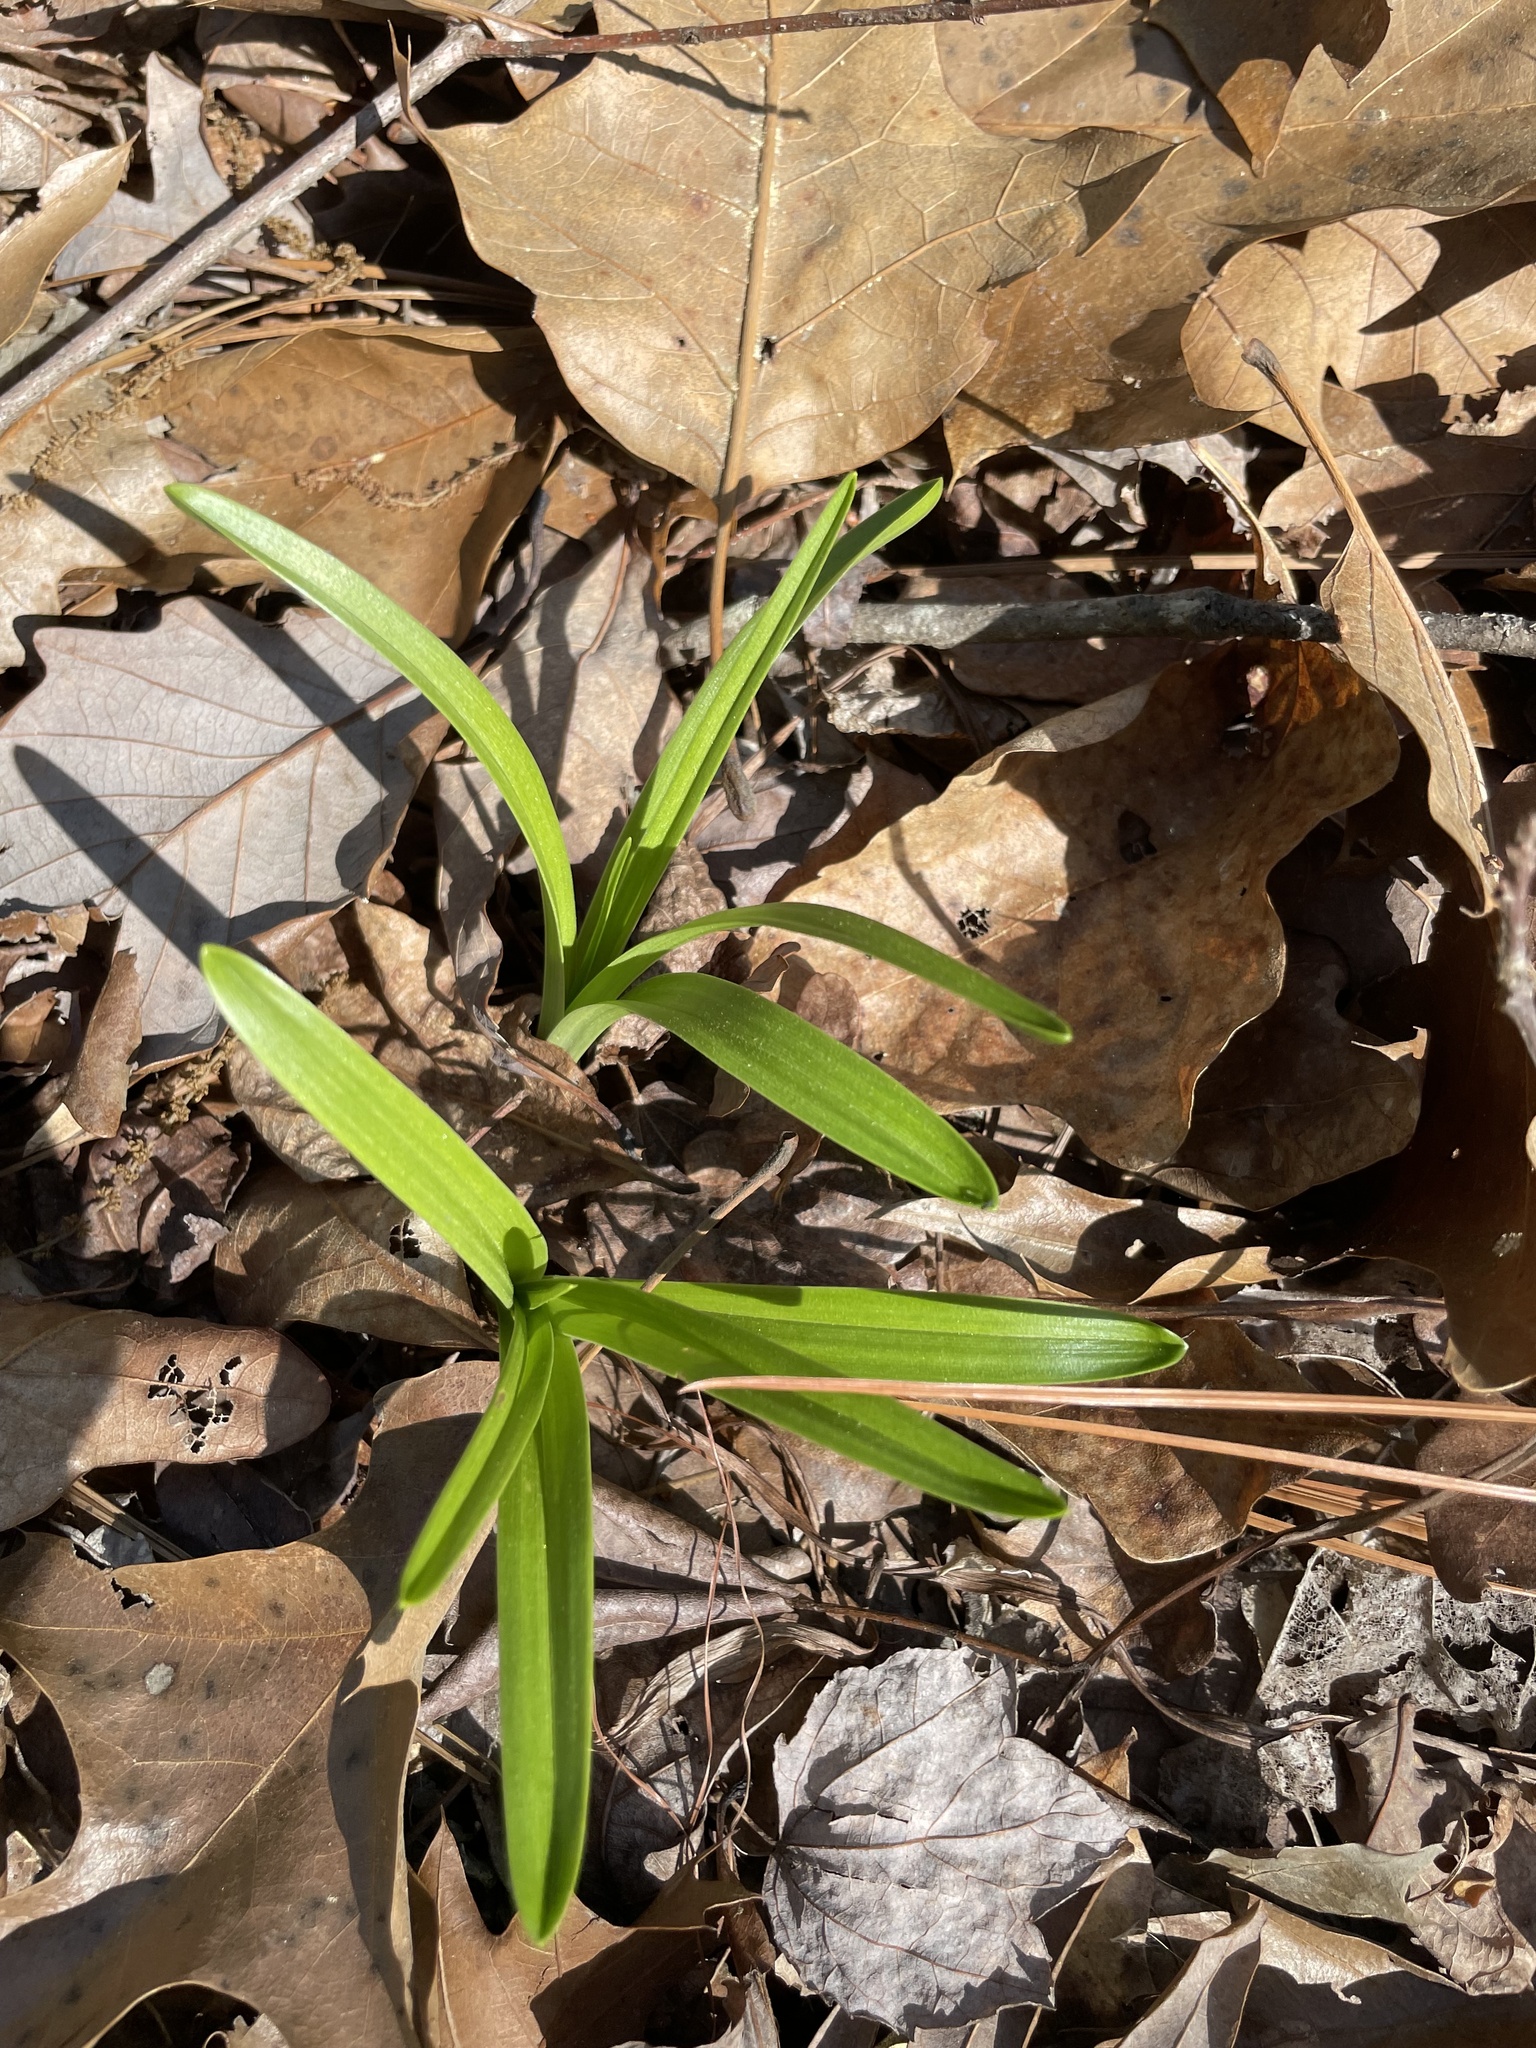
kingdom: Plantae
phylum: Tracheophyta
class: Liliopsida
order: Liliales
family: Melanthiaceae
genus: Melanthium
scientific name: Melanthium virginicum
